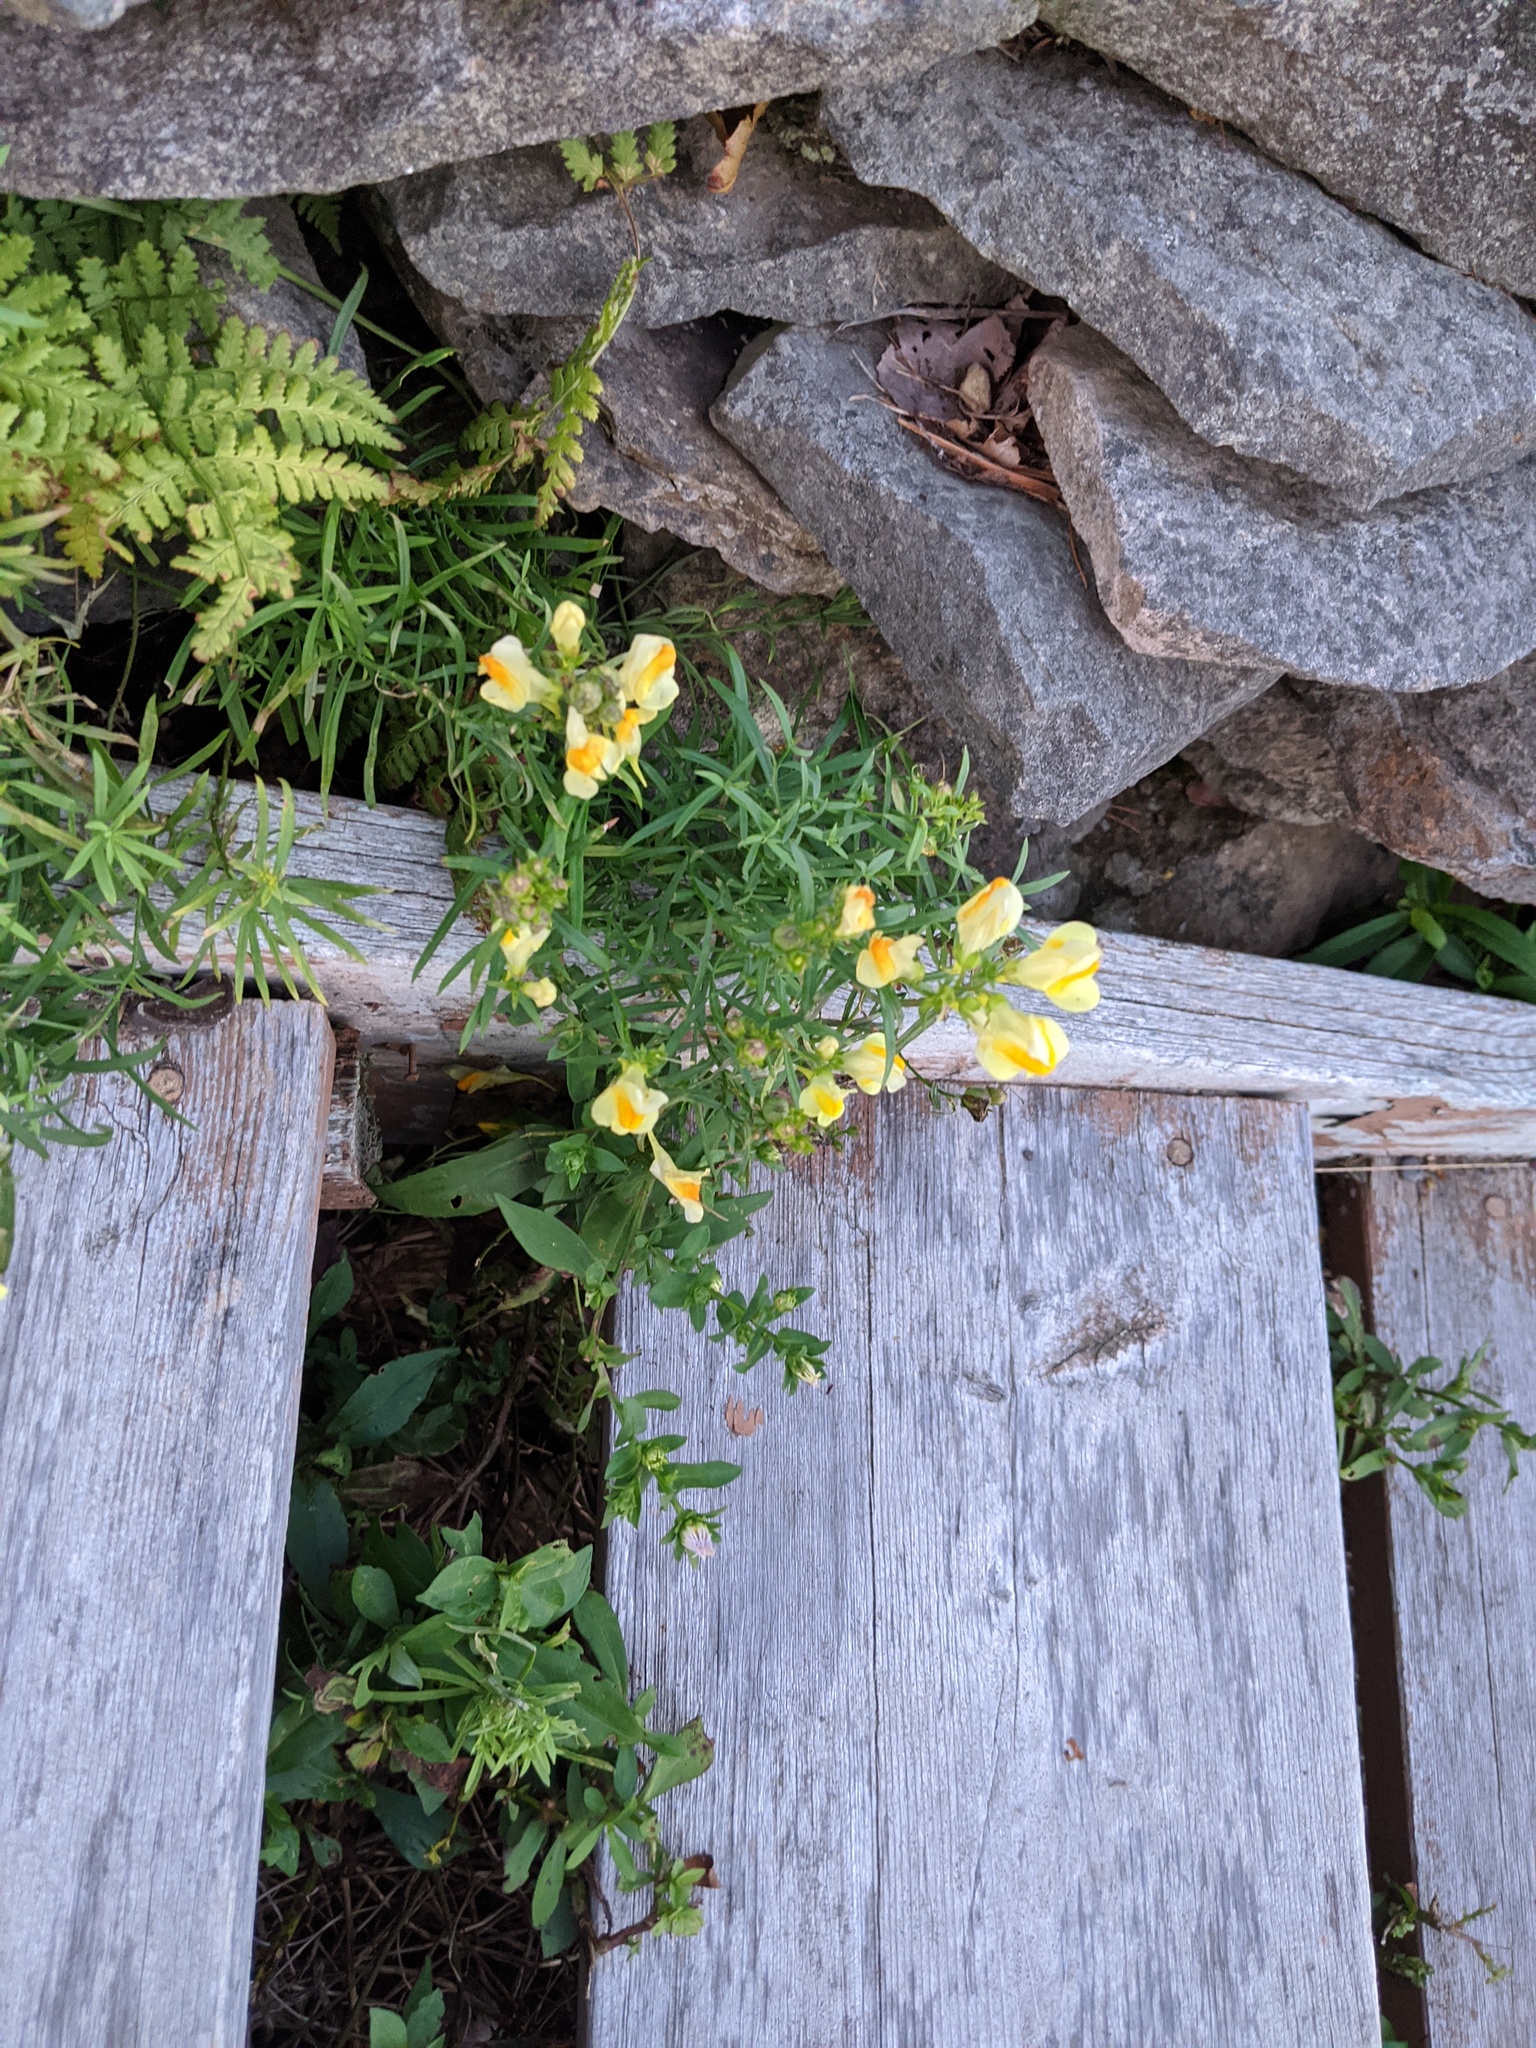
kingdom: Plantae
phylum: Tracheophyta
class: Magnoliopsida
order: Lamiales
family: Plantaginaceae
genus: Linaria
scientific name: Linaria vulgaris
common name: Butter and eggs
